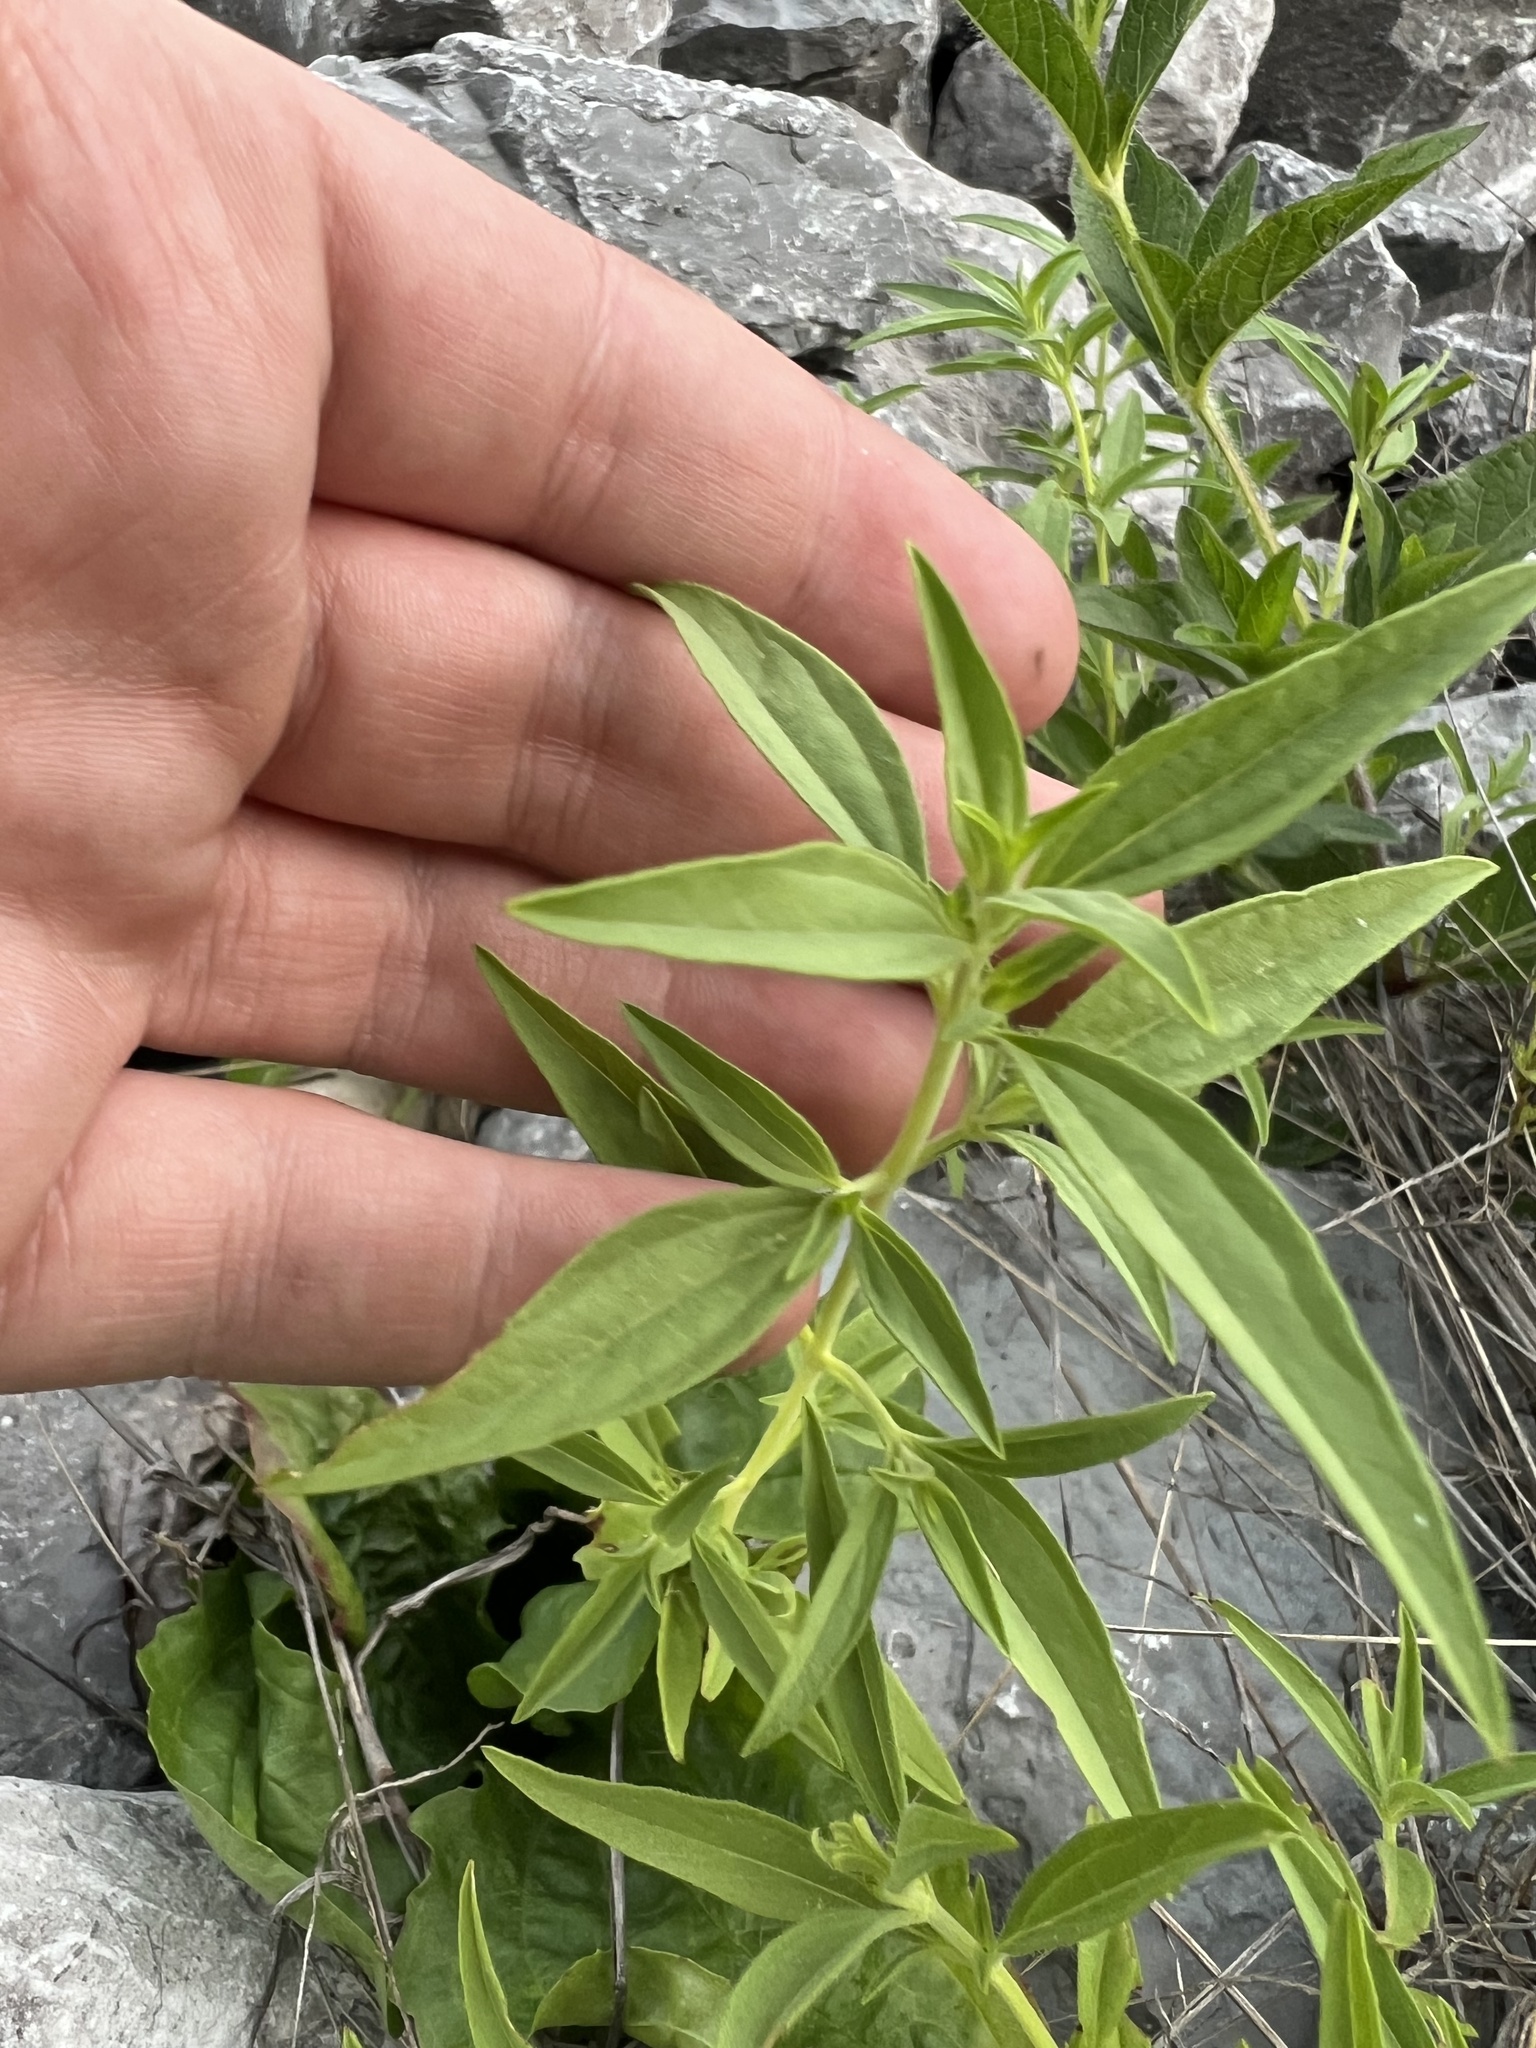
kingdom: Plantae
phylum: Tracheophyta
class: Magnoliopsida
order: Lamiales
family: Lamiaceae
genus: Trichostema
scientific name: Trichostema brachiatum
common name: False pennyroyal
